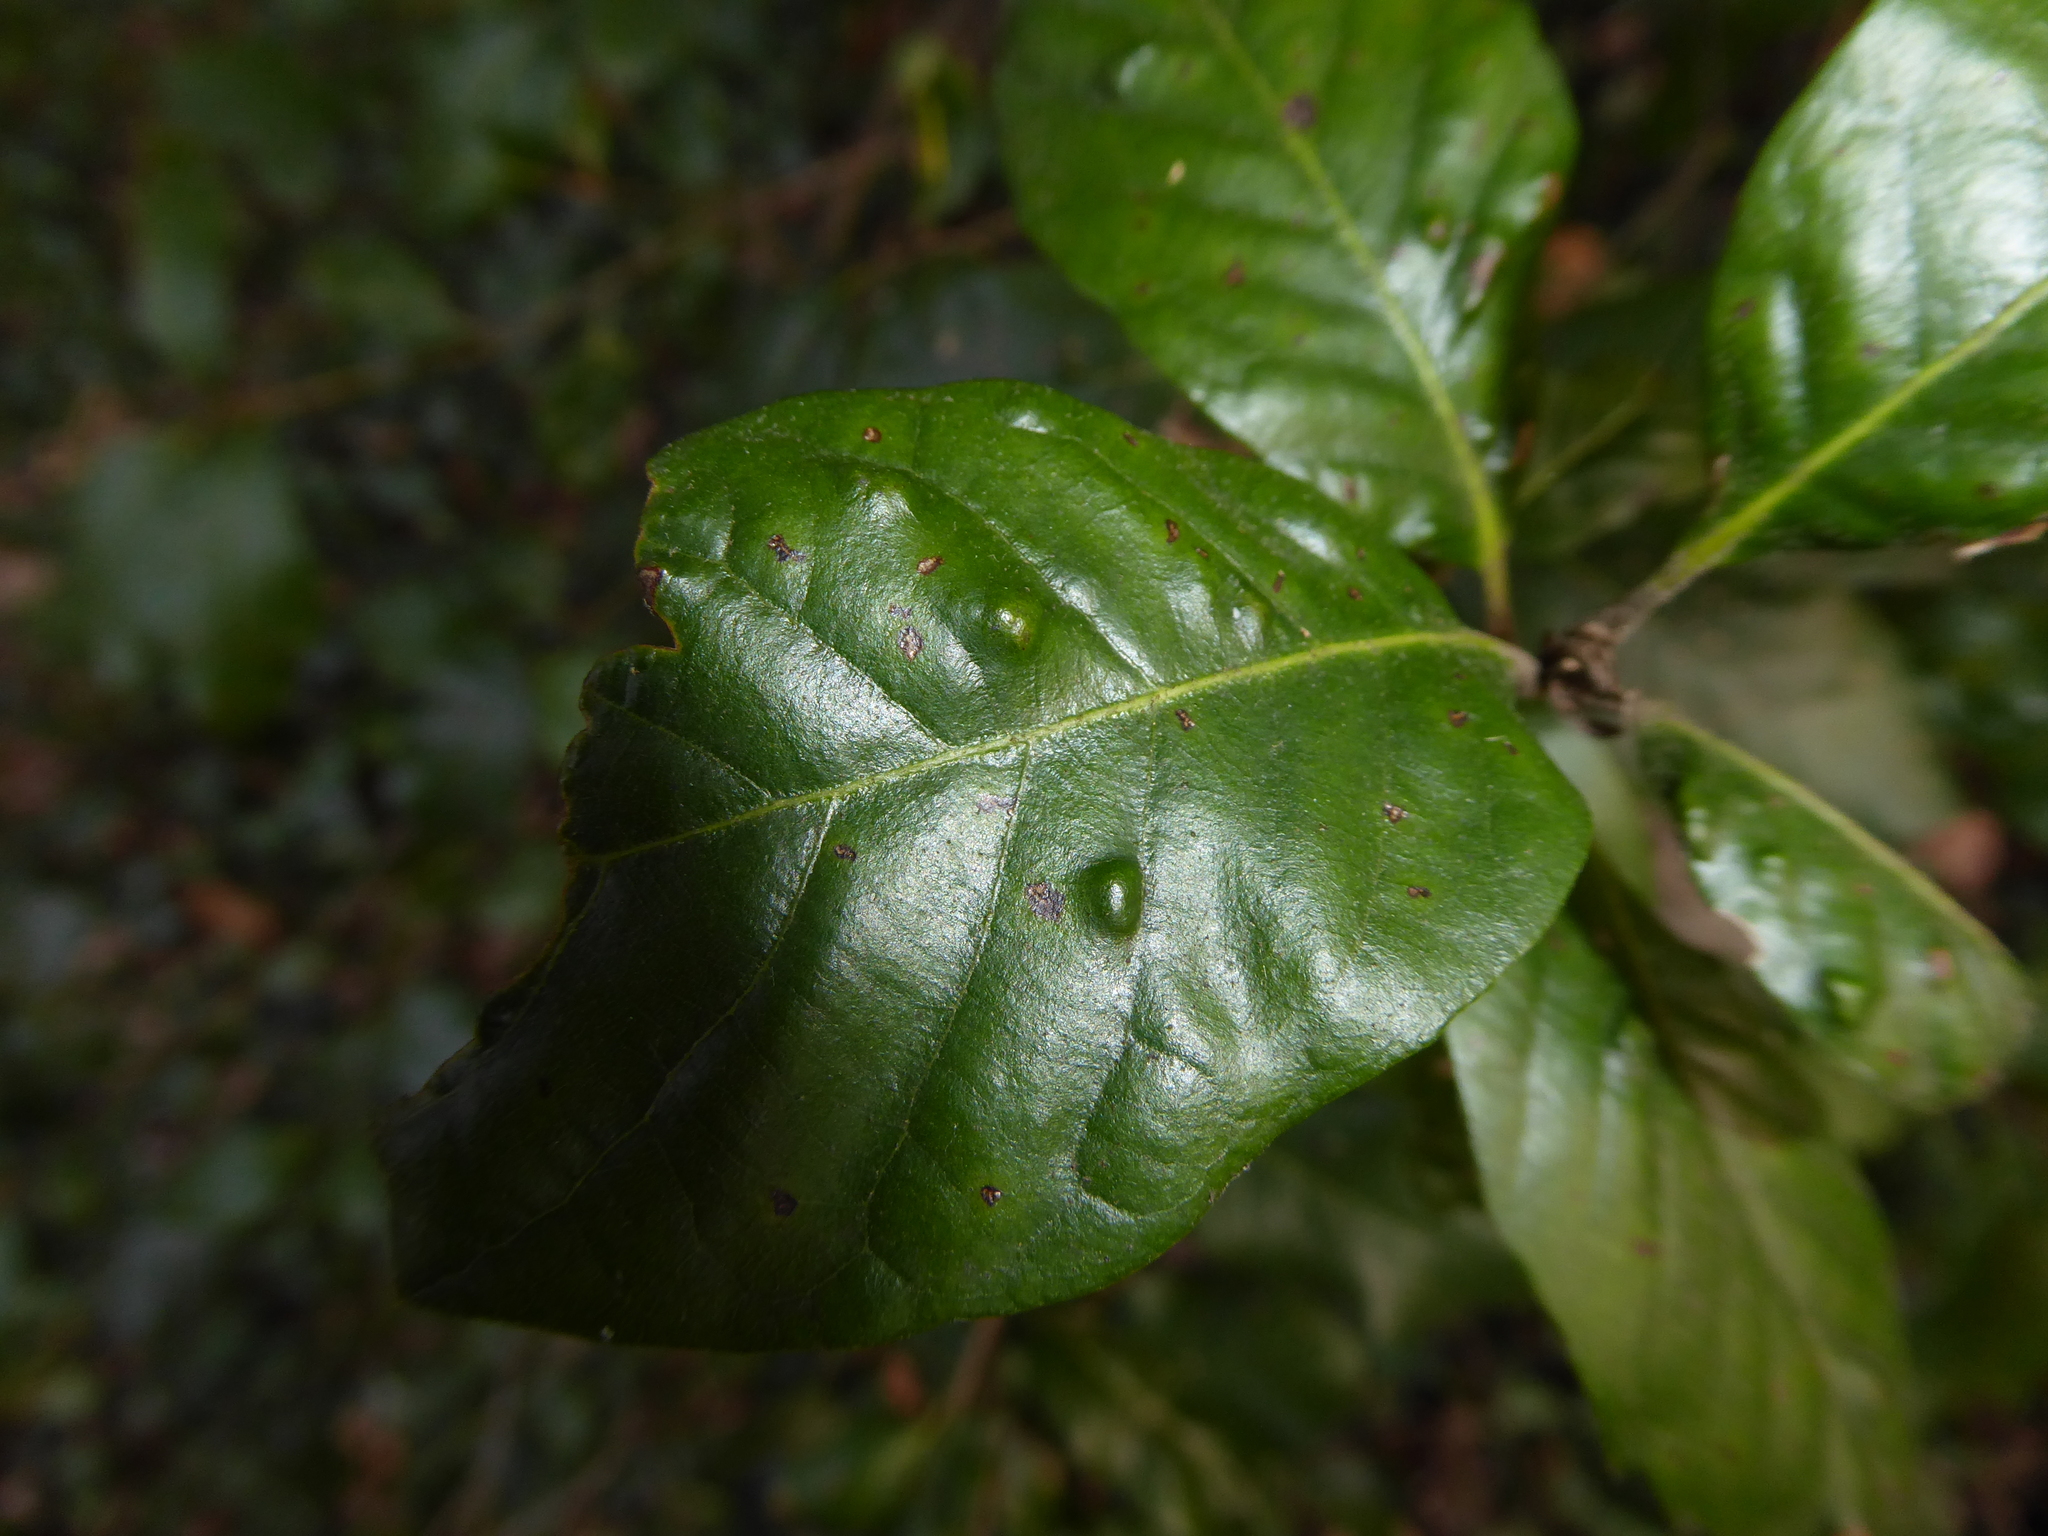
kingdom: Animalia
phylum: Arthropoda
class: Arachnida
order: Trombidiformes
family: Eriophyidae
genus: Aceria
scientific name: Aceria ilicis
